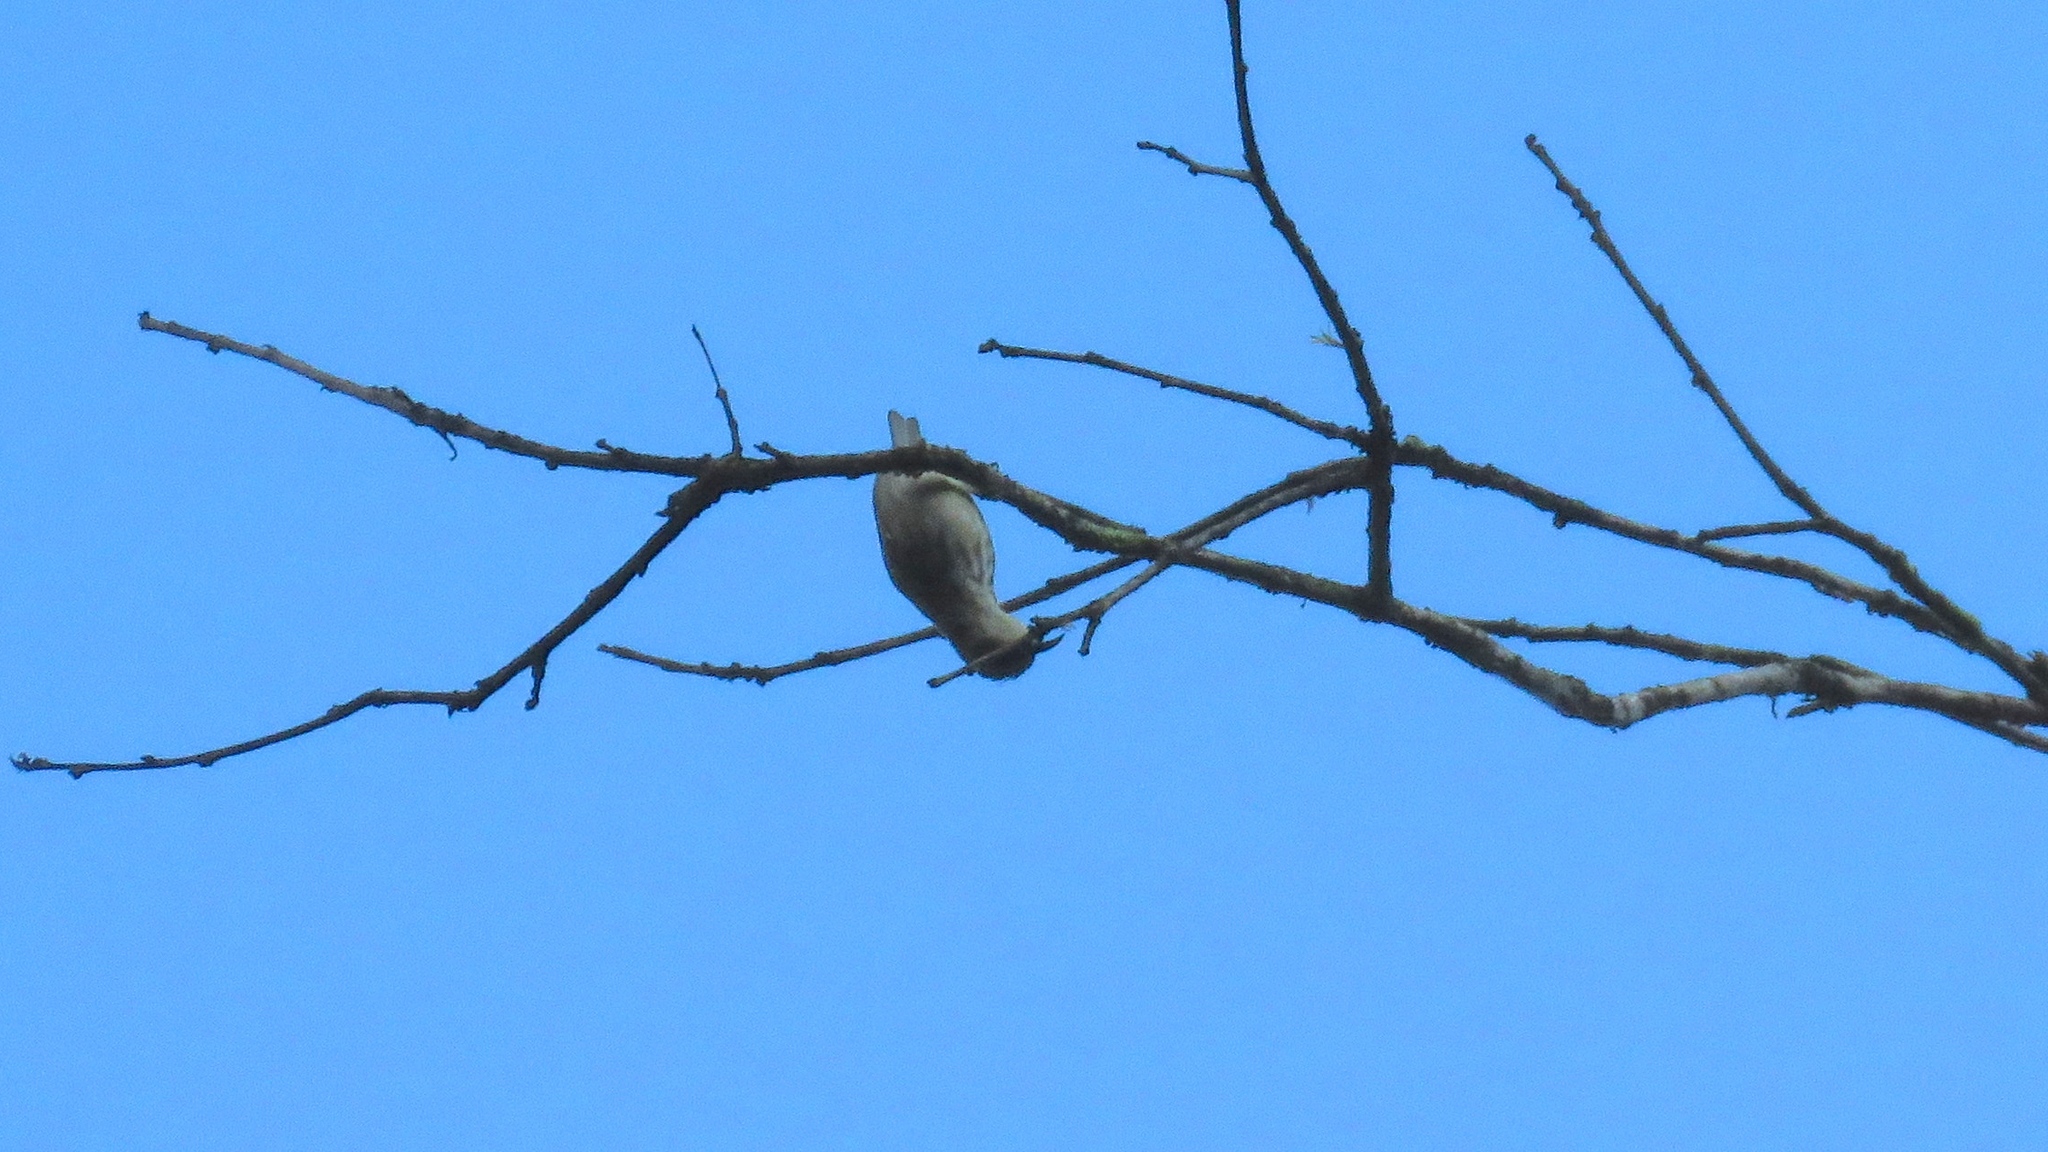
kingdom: Animalia
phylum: Chordata
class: Aves
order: Passeriformes
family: Thraupidae
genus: Cyanerpes
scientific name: Cyanerpes lucidus
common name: Shining honeycreeper
